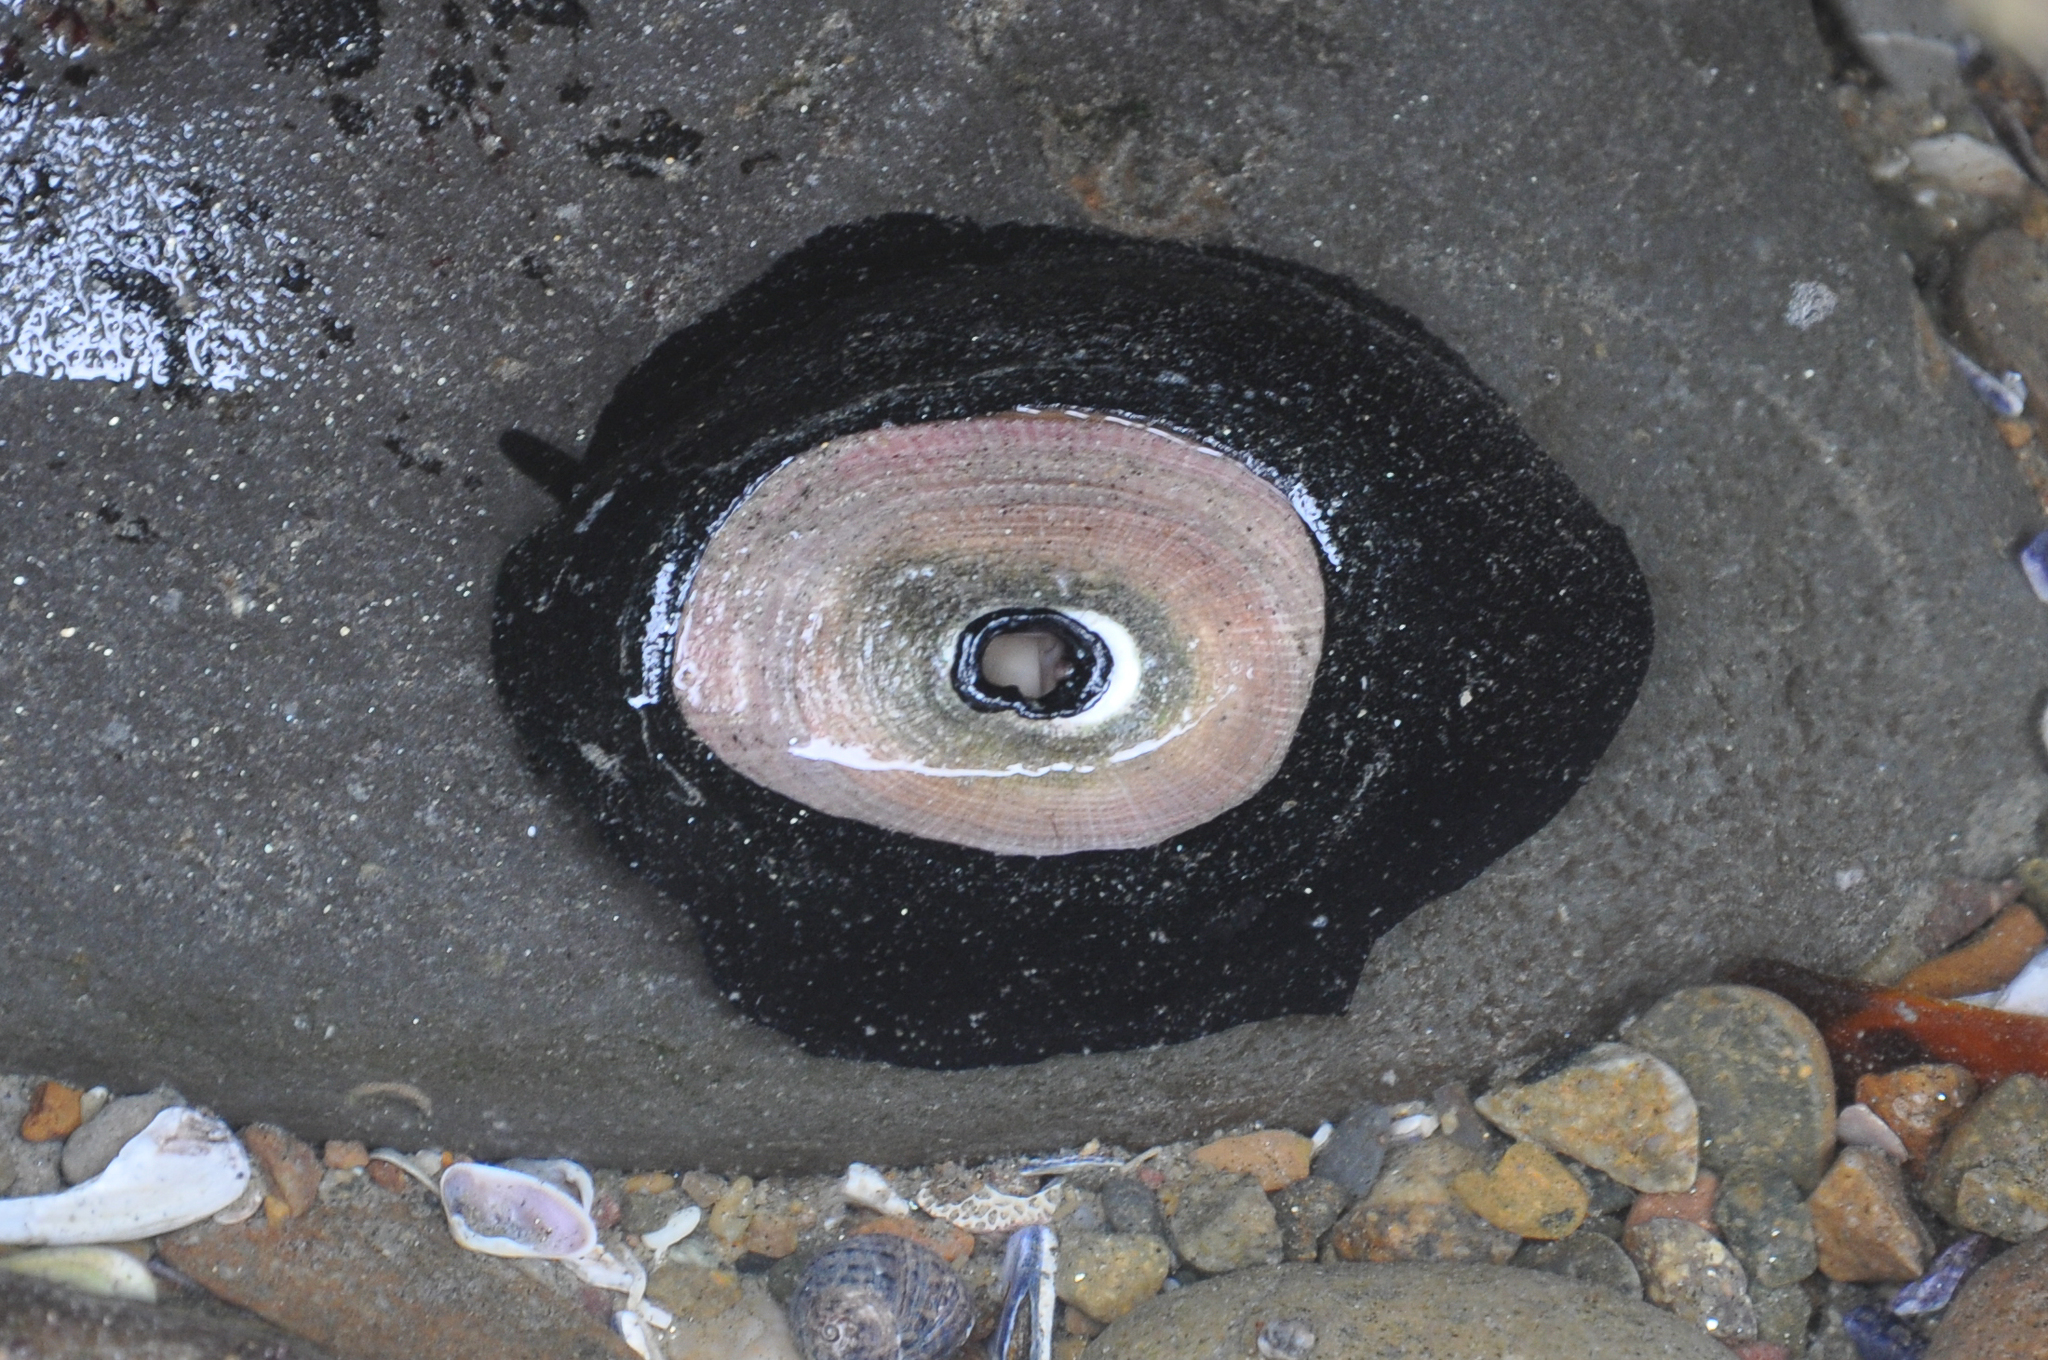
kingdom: Animalia
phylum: Mollusca
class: Gastropoda
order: Lepetellida
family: Fissurellidae
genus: Megathura
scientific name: Megathura crenulata
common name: Giant keyhole limpet
